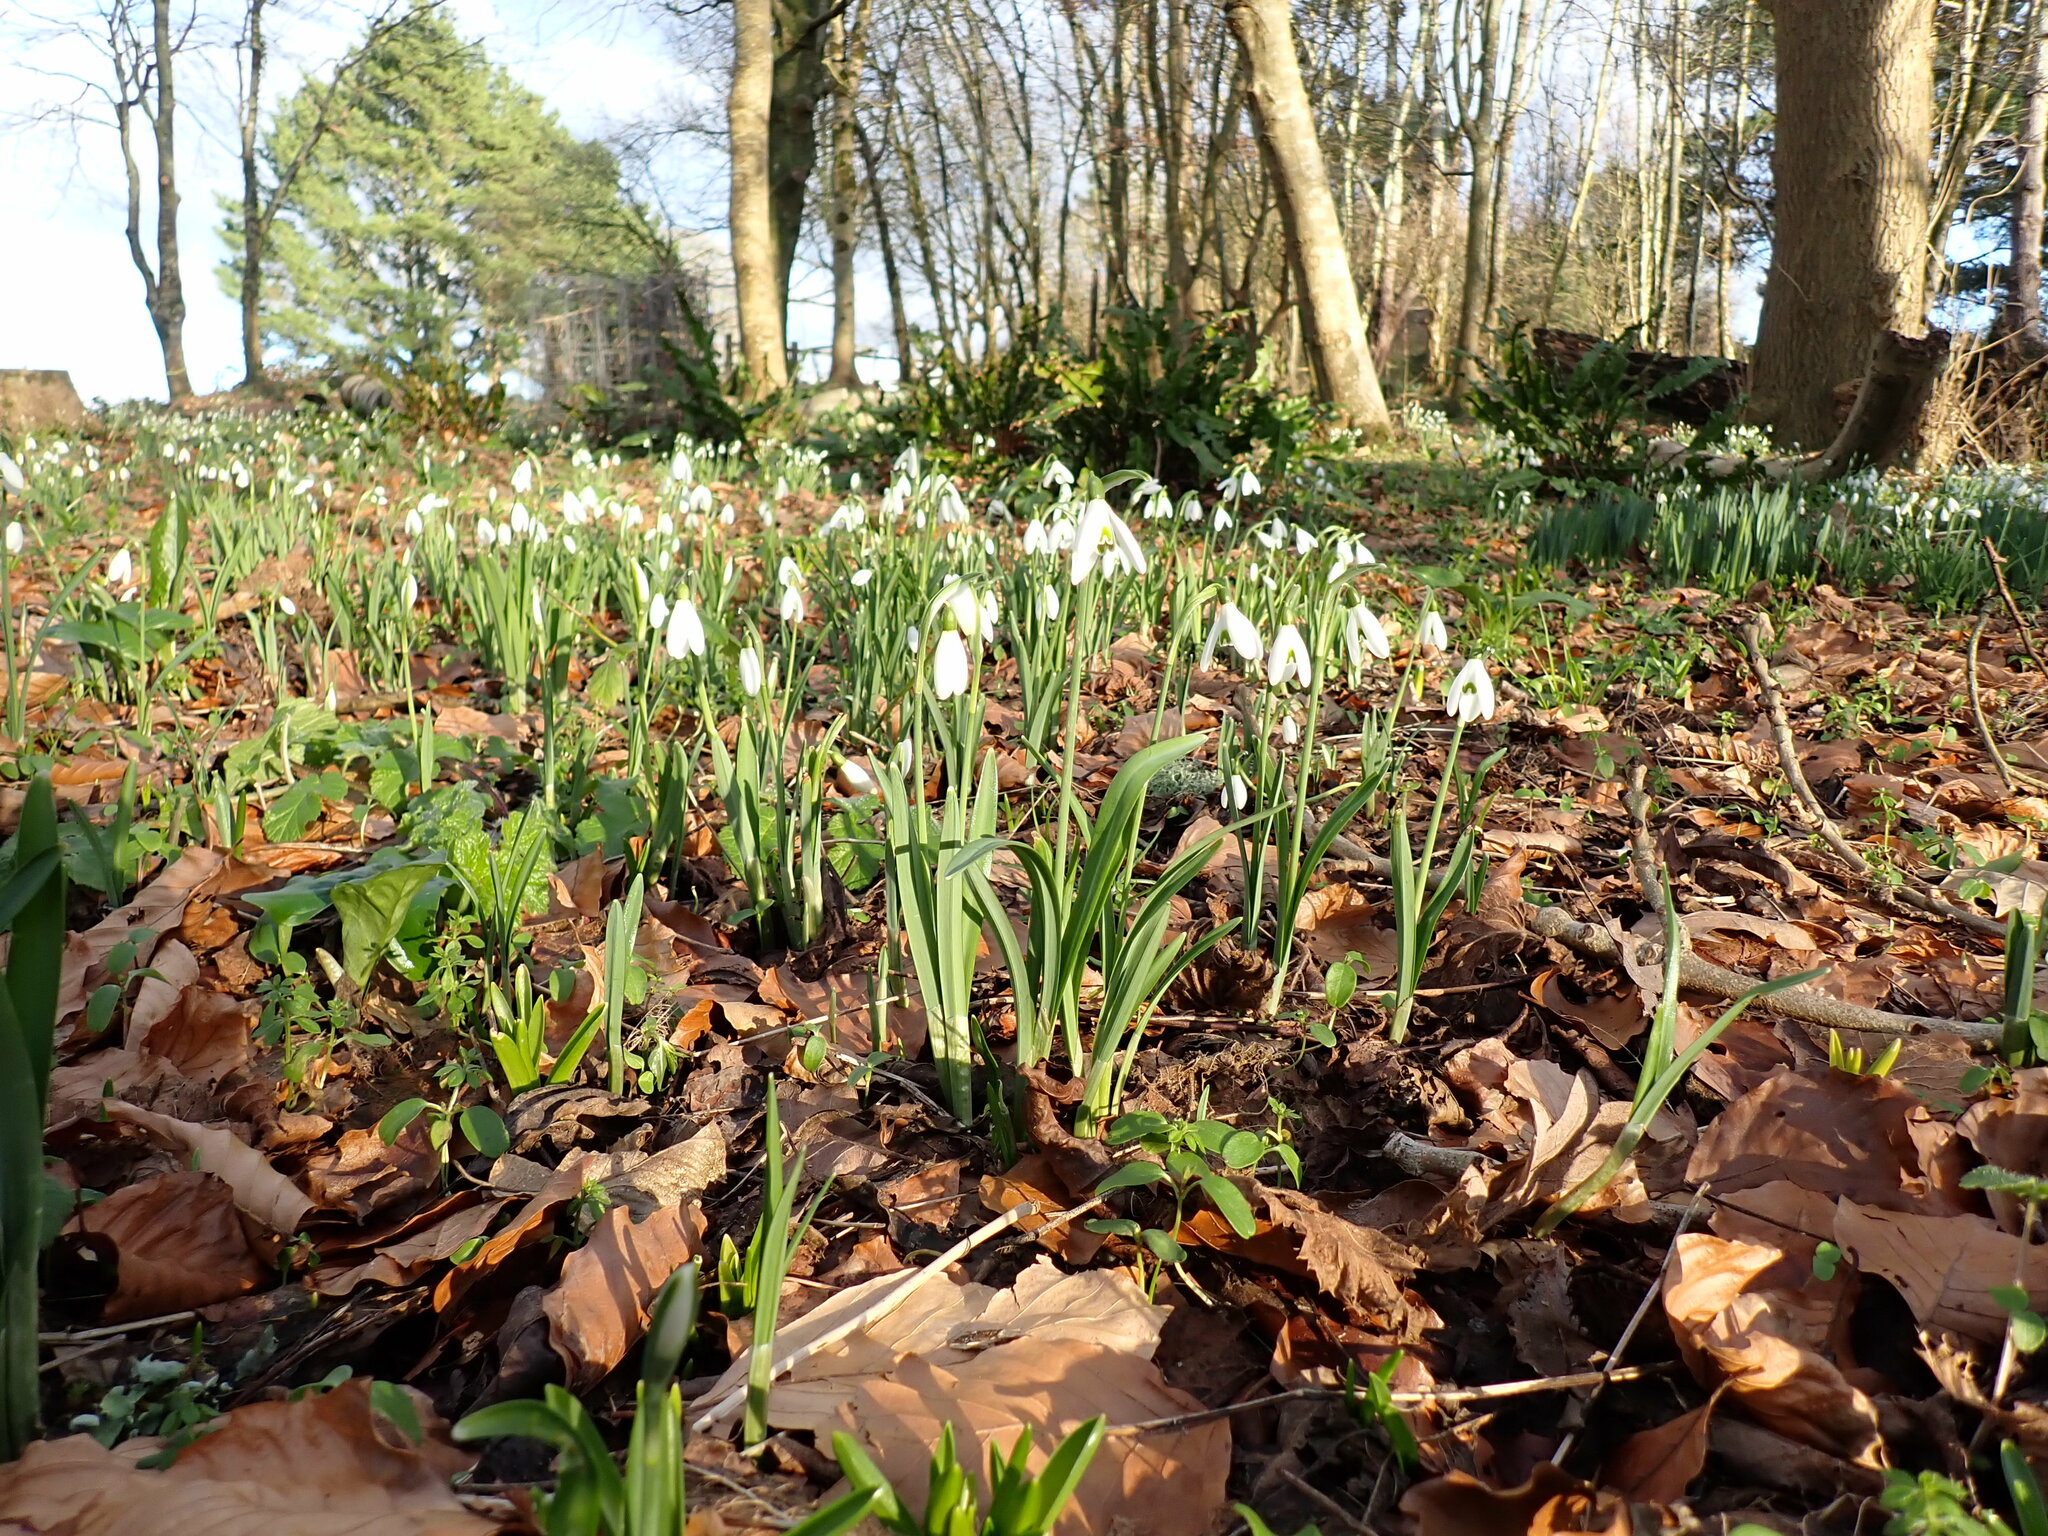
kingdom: Plantae
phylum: Tracheophyta
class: Liliopsida
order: Asparagales
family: Amaryllidaceae
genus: Galanthus
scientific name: Galanthus nivalis
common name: Snowdrop
